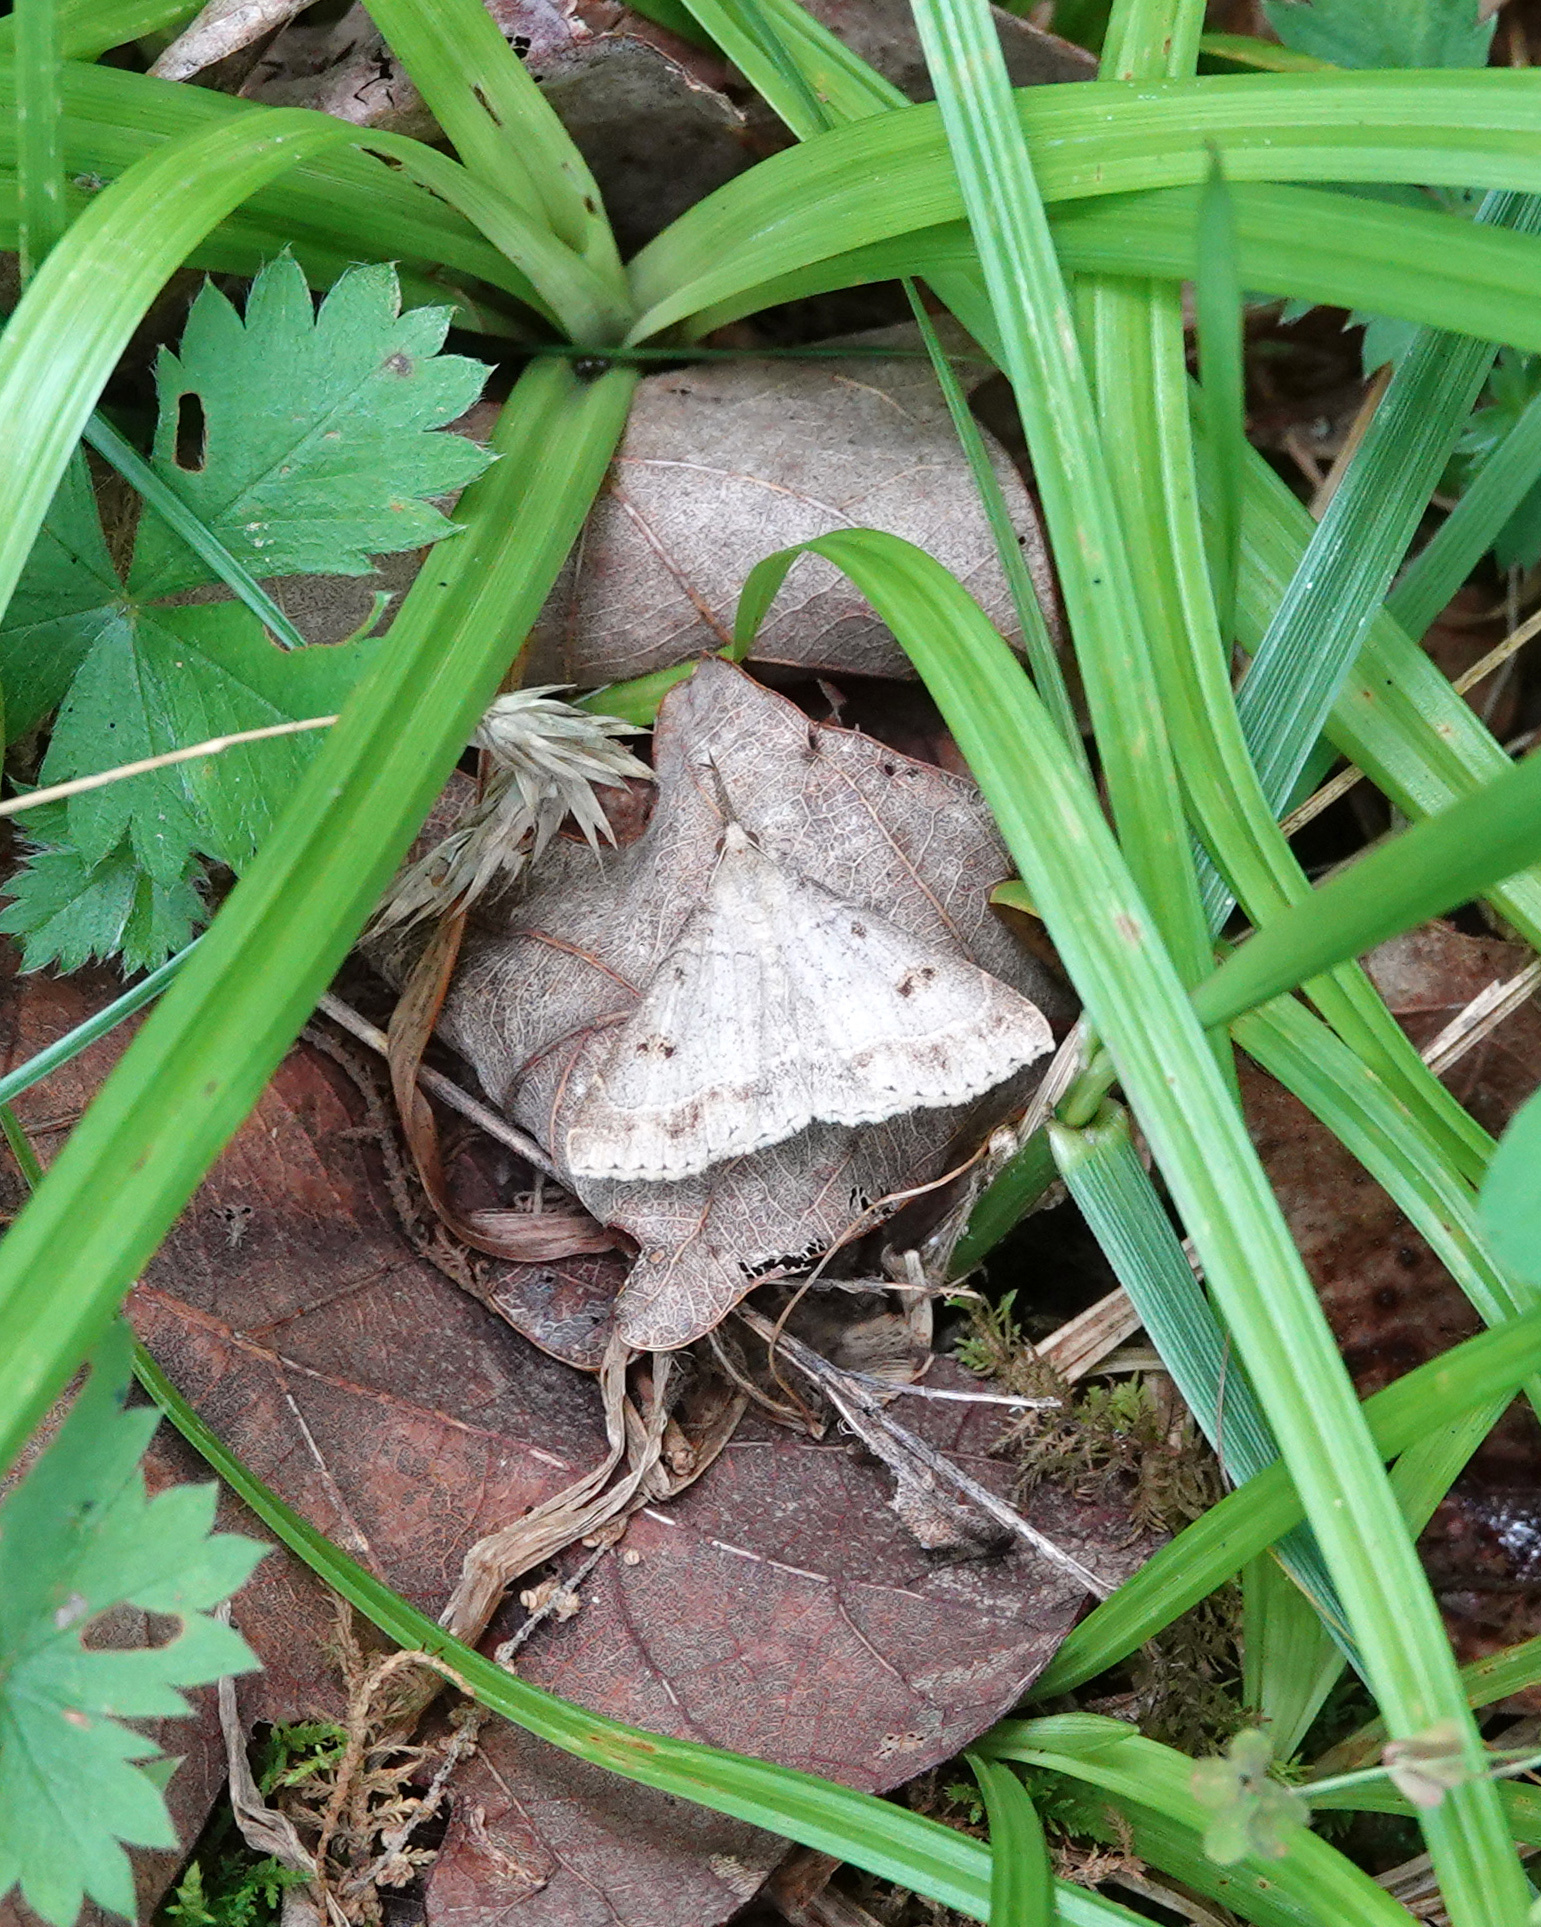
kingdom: Animalia
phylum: Arthropoda
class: Insecta
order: Lepidoptera
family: Erebidae
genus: Renia
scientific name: Renia flavipunctalis
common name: Yellow-spotted renia moth
